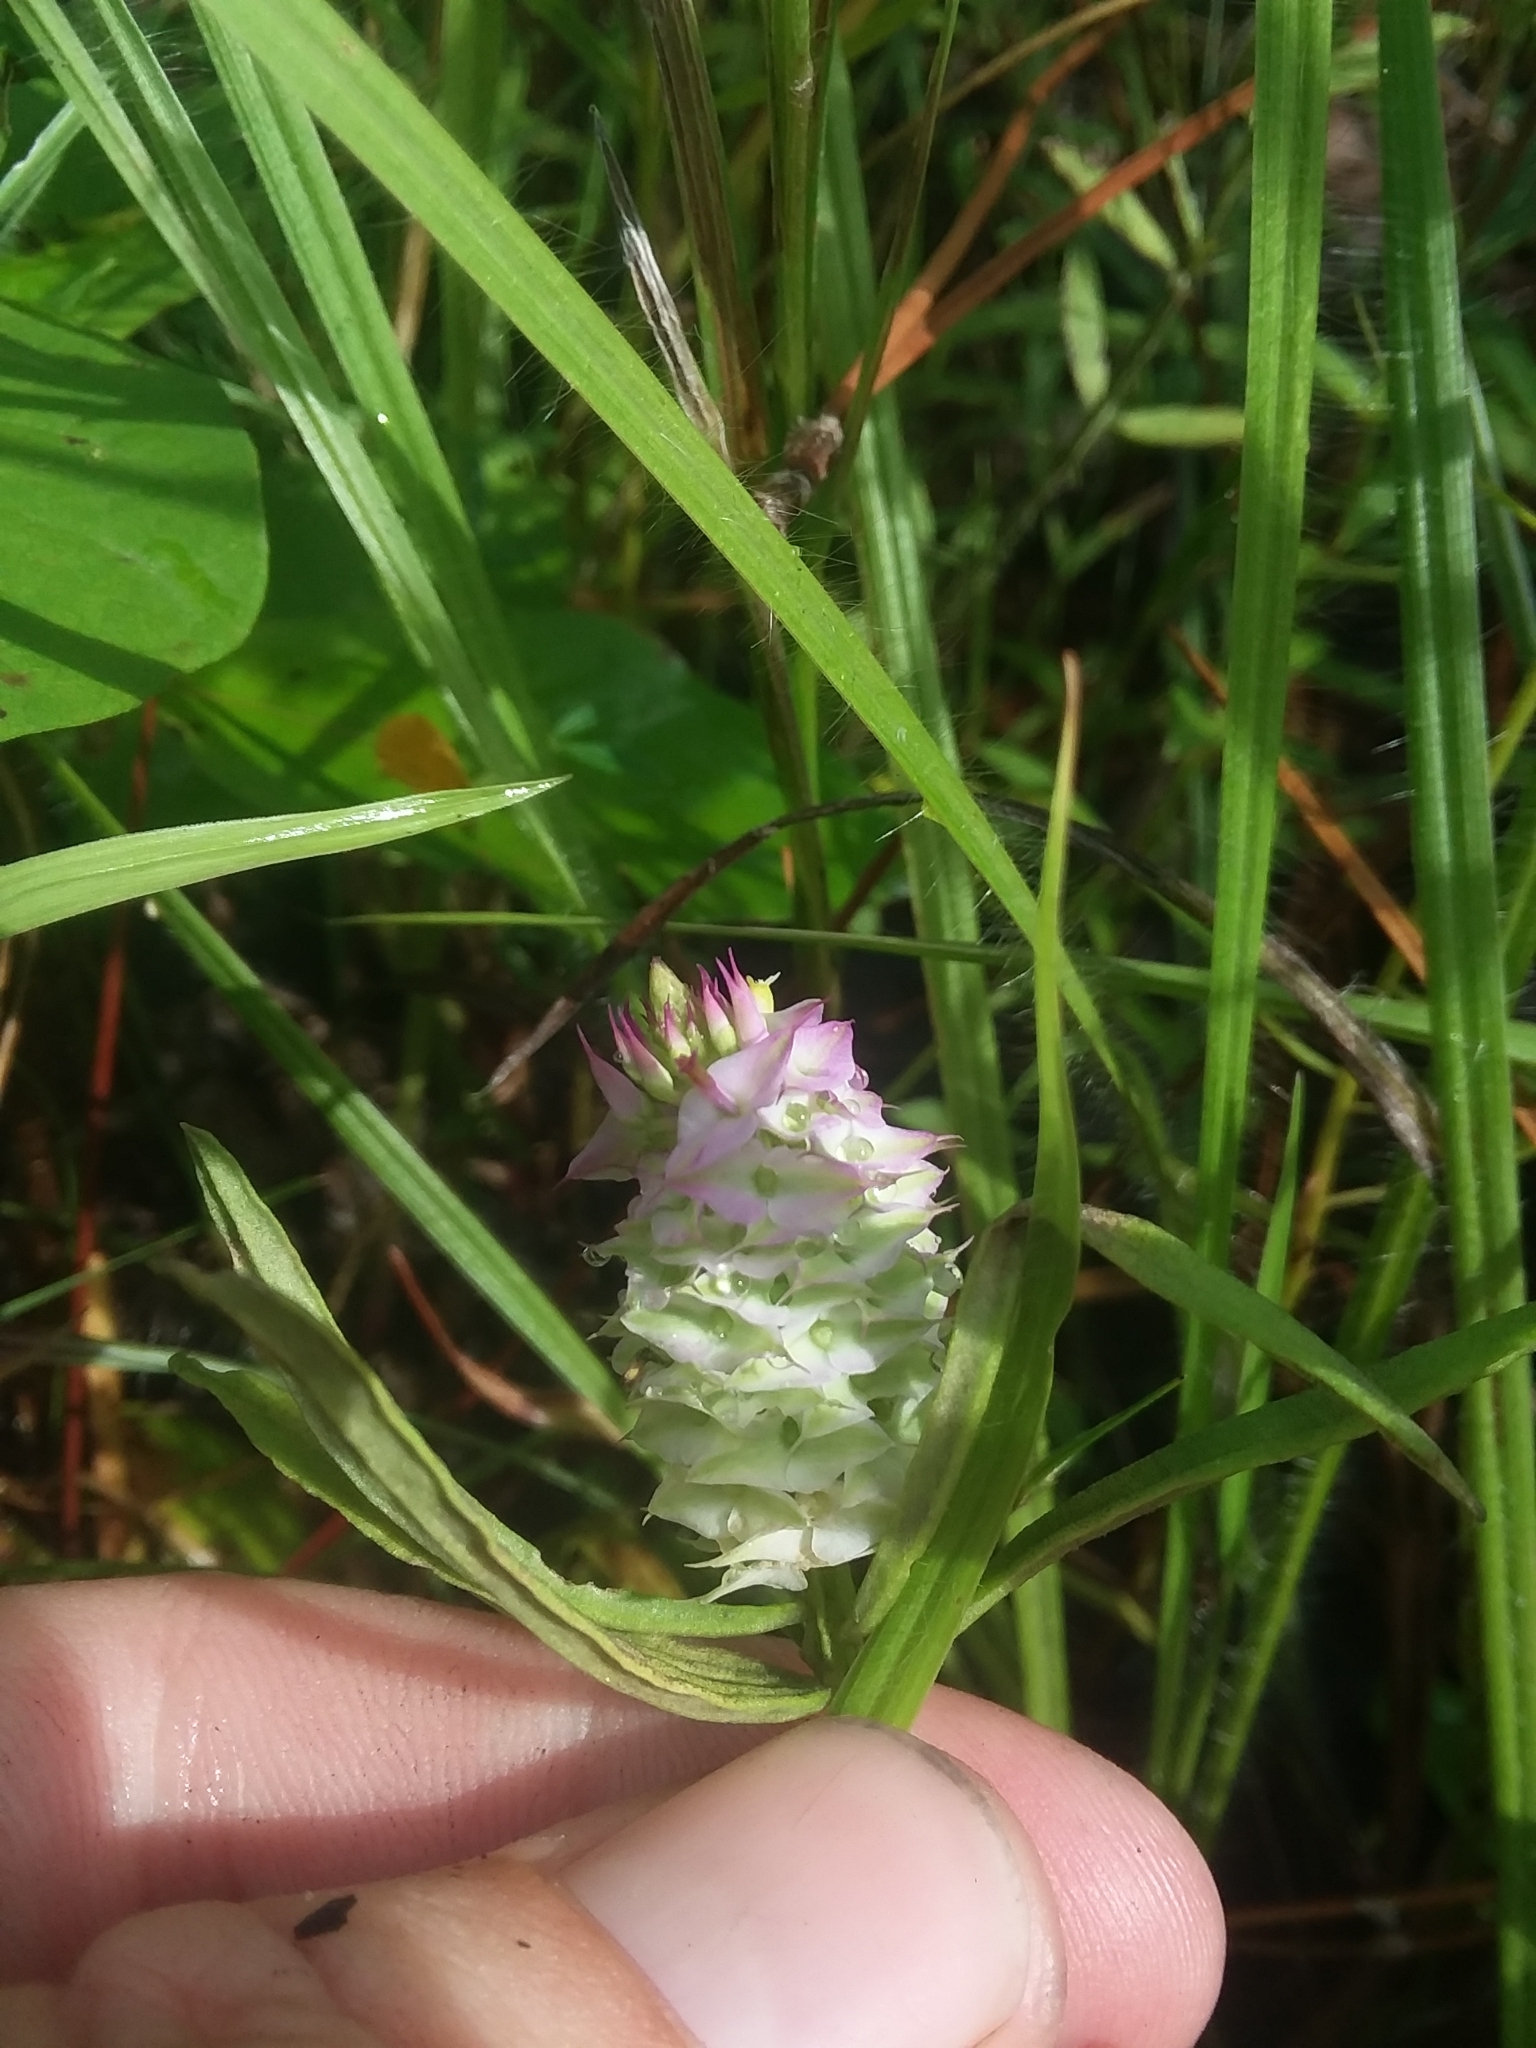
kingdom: Plantae
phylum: Tracheophyta
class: Magnoliopsida
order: Fabales
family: Polygalaceae
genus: Polygala
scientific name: Polygala cruciata
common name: Drumheads
